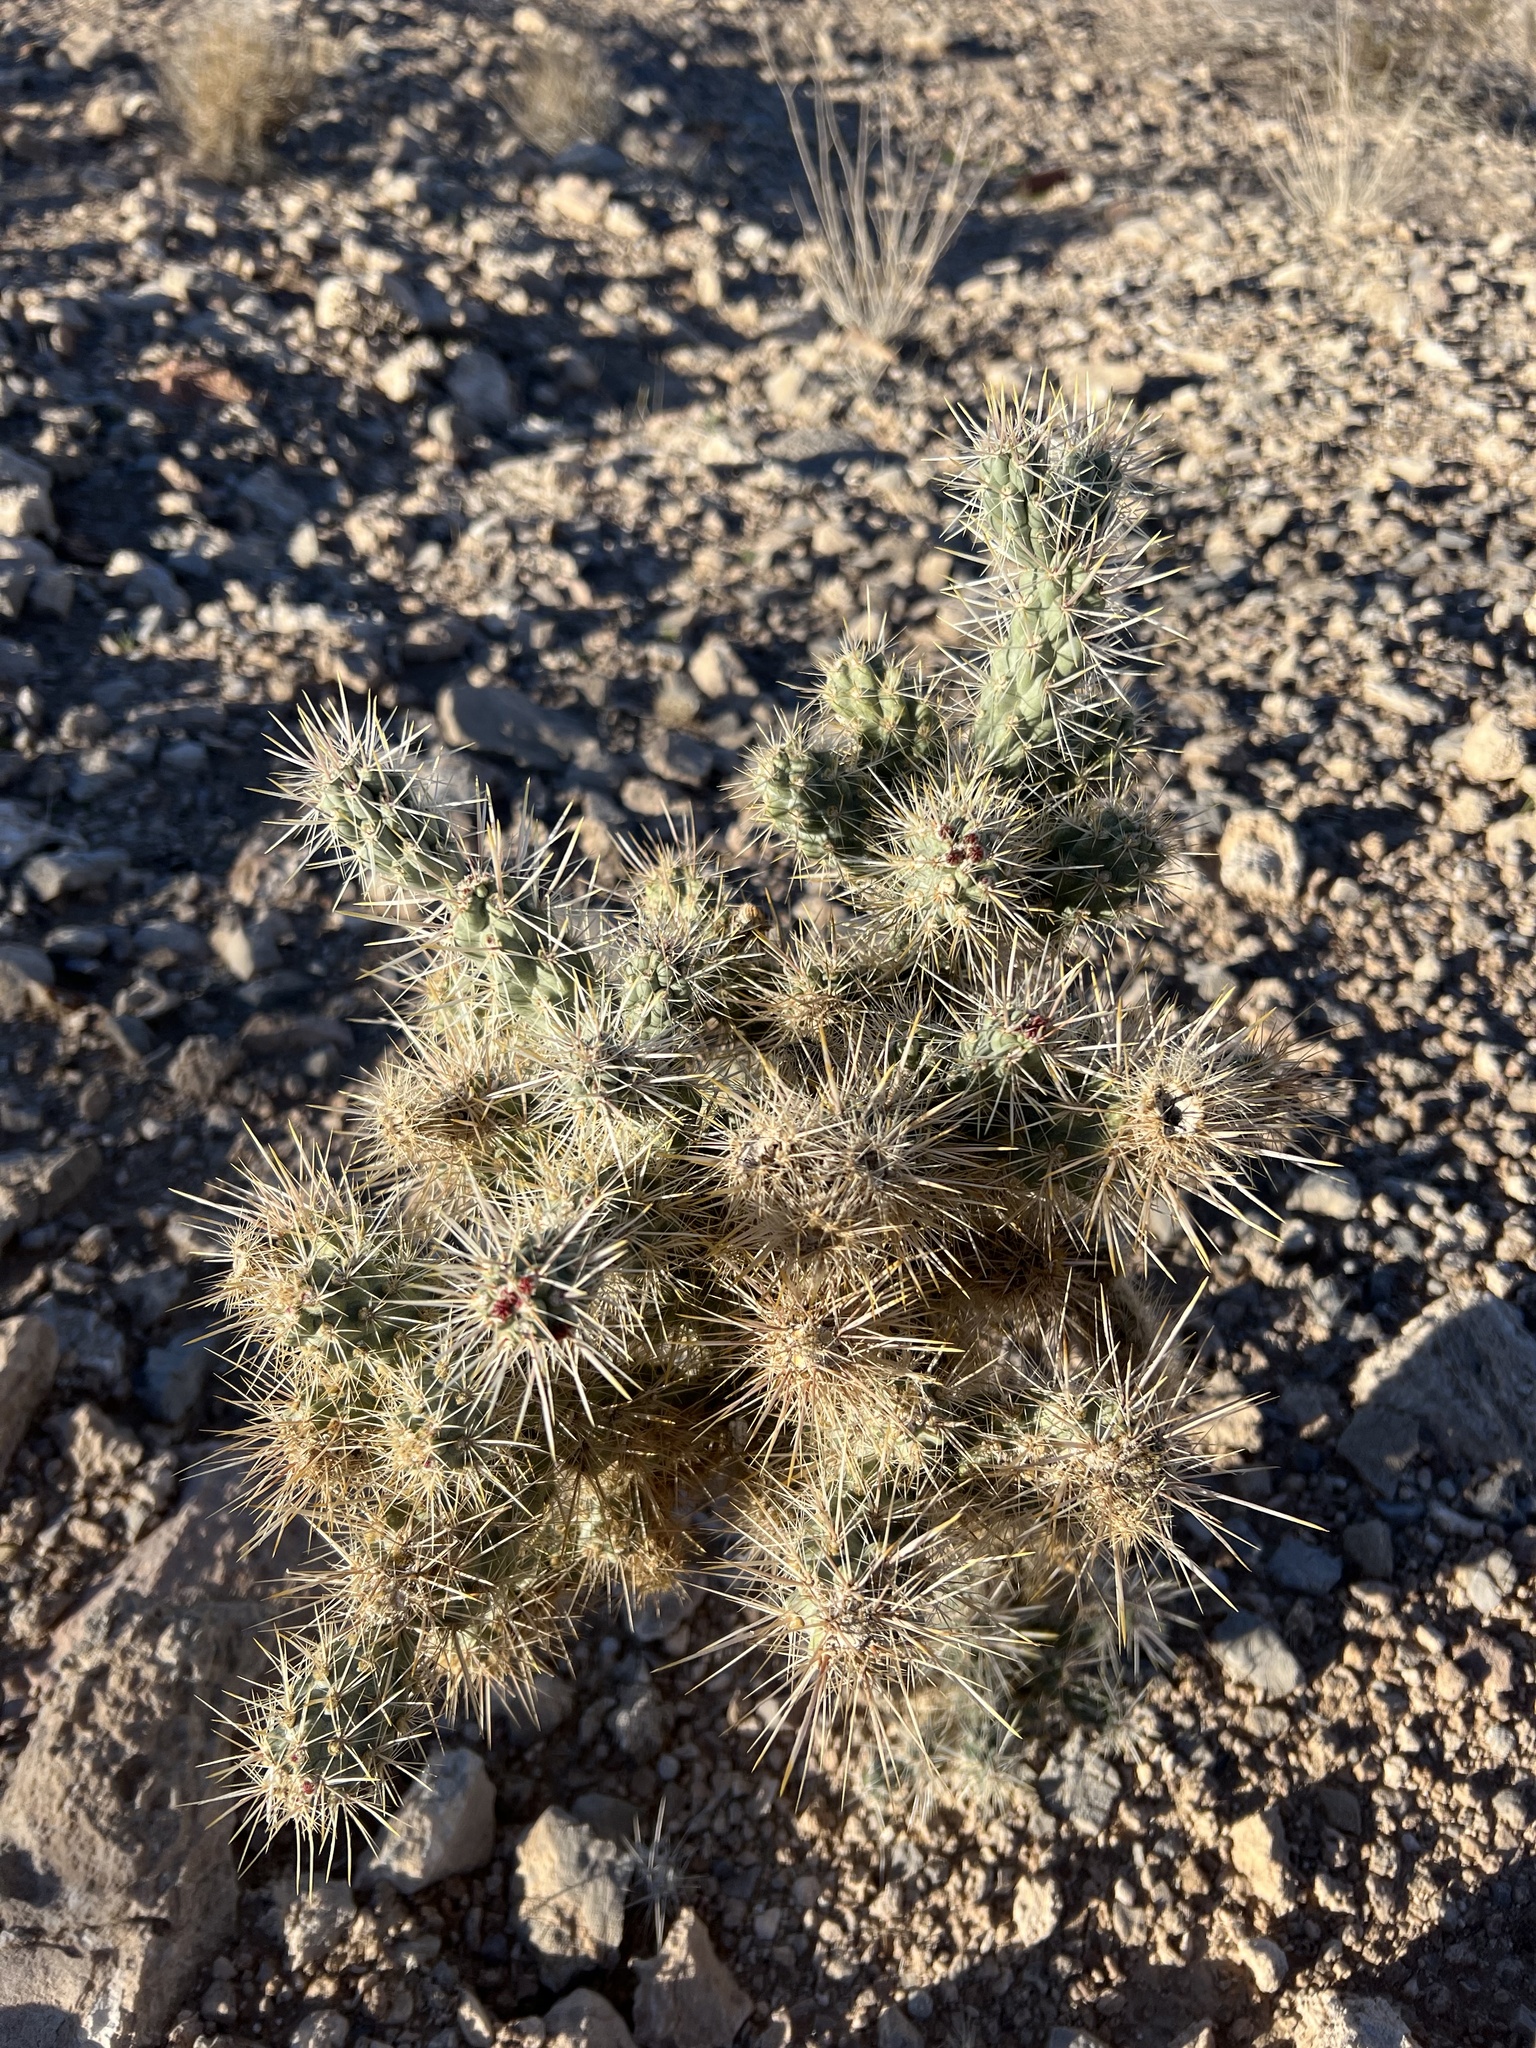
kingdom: Plantae
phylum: Tracheophyta
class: Magnoliopsida
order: Caryophyllales
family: Cactaceae
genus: Cylindropuntia
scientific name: Cylindropuntia echinocarpa
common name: Ground cholla
